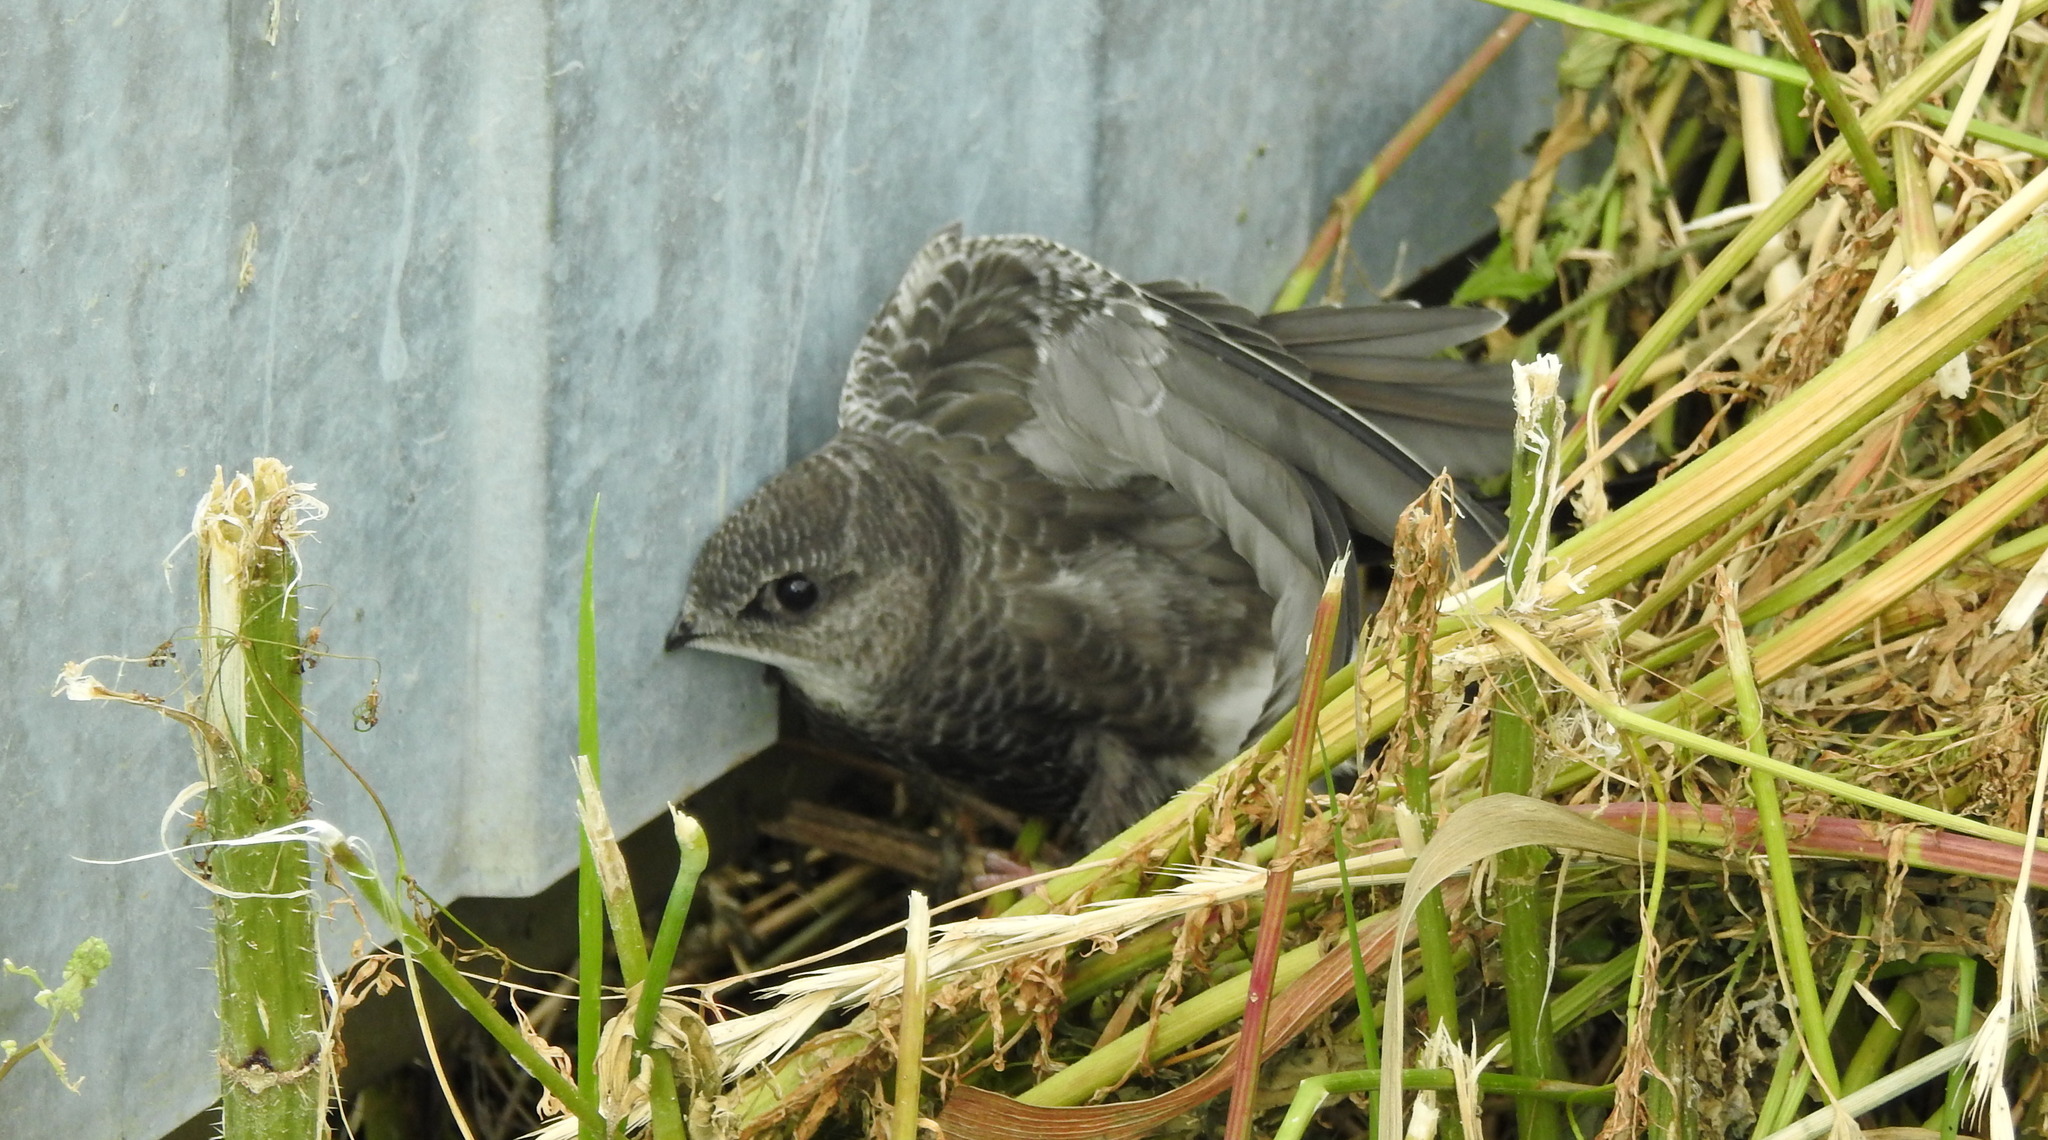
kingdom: Animalia
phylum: Chordata
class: Aves
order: Apodiformes
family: Apodidae
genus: Apus
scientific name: Apus pacificus
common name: Pacific swift
